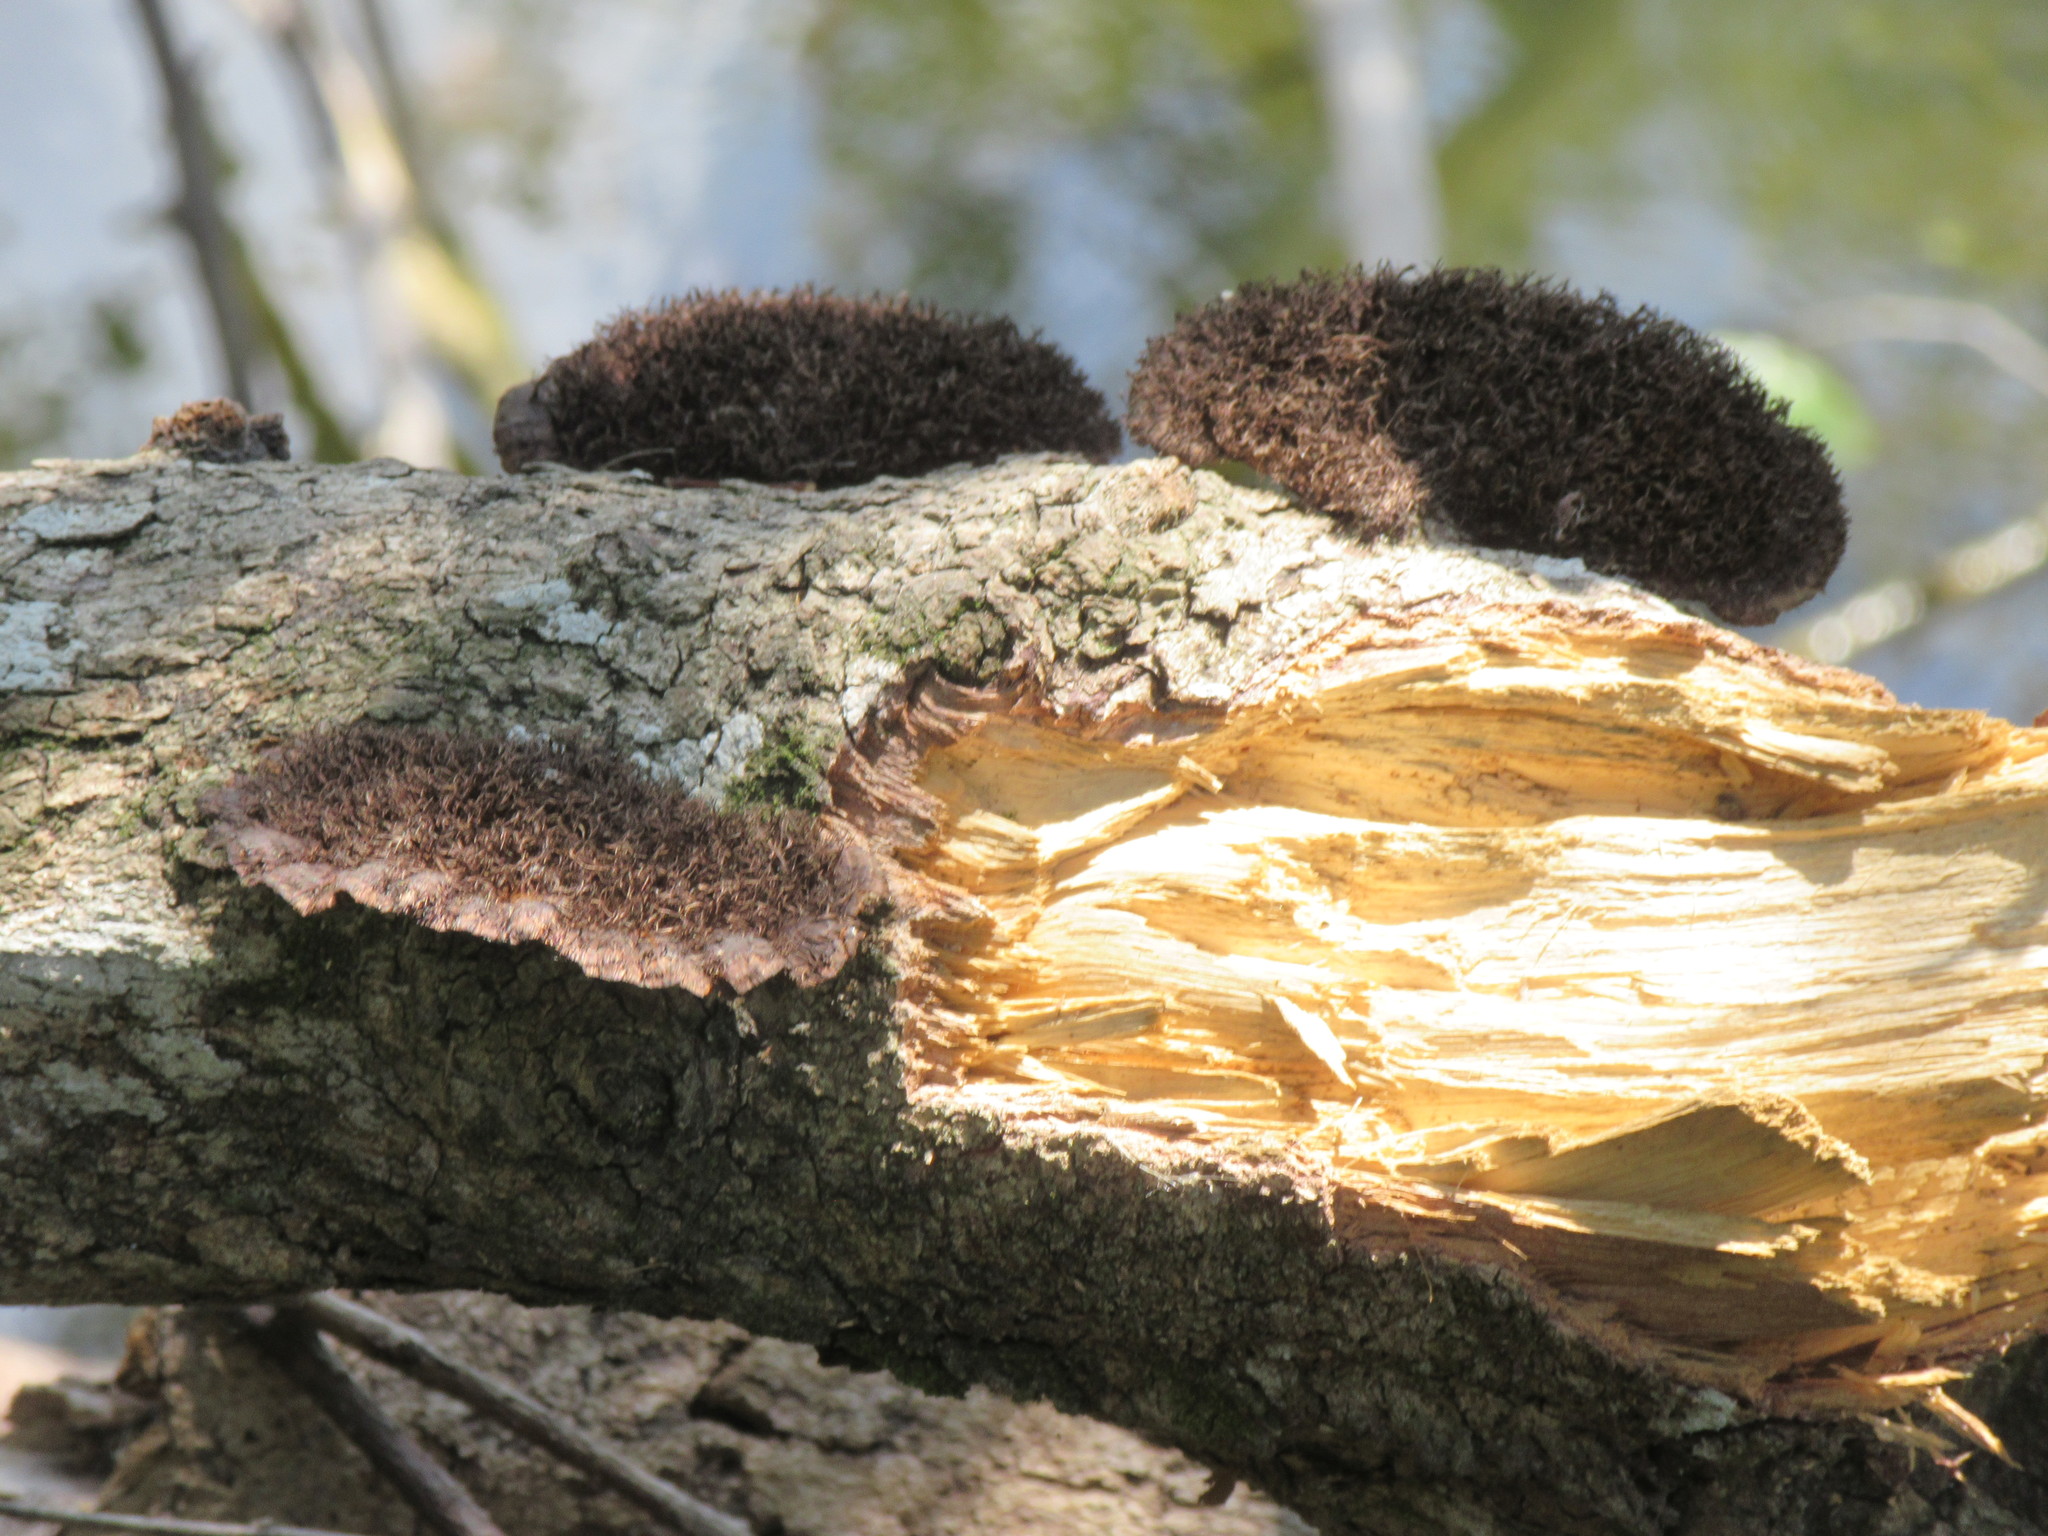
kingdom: Fungi
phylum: Basidiomycota
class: Agaricomycetes
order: Polyporales
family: Cerrenaceae
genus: Cerrena
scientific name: Cerrena hydnoides
